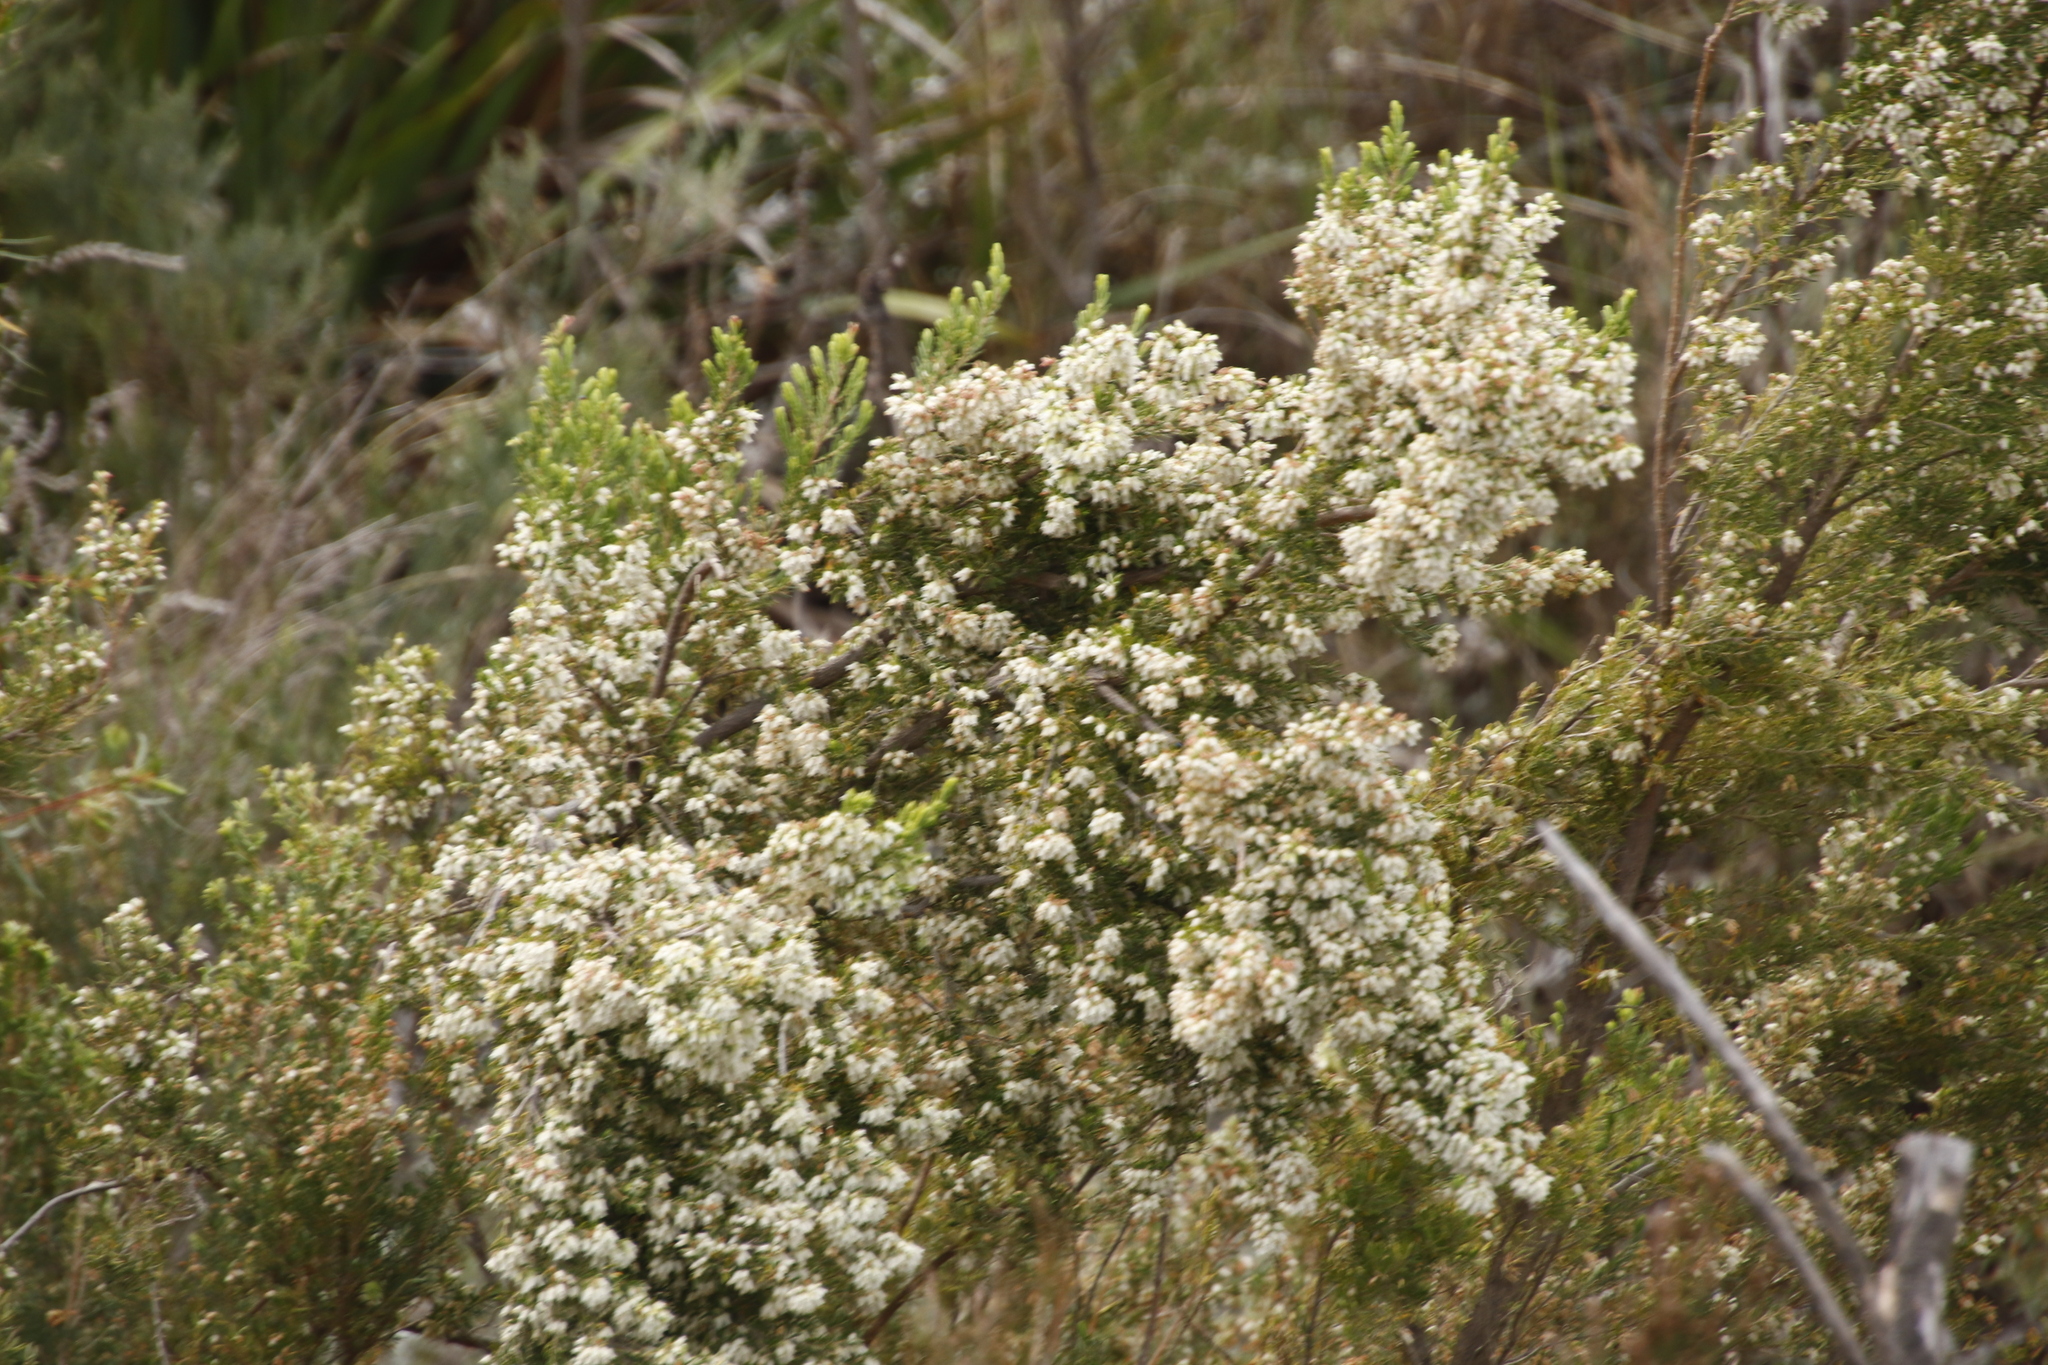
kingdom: Plantae
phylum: Tracheophyta
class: Magnoliopsida
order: Ericales
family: Ericaceae
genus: Erica
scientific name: Erica caffra
